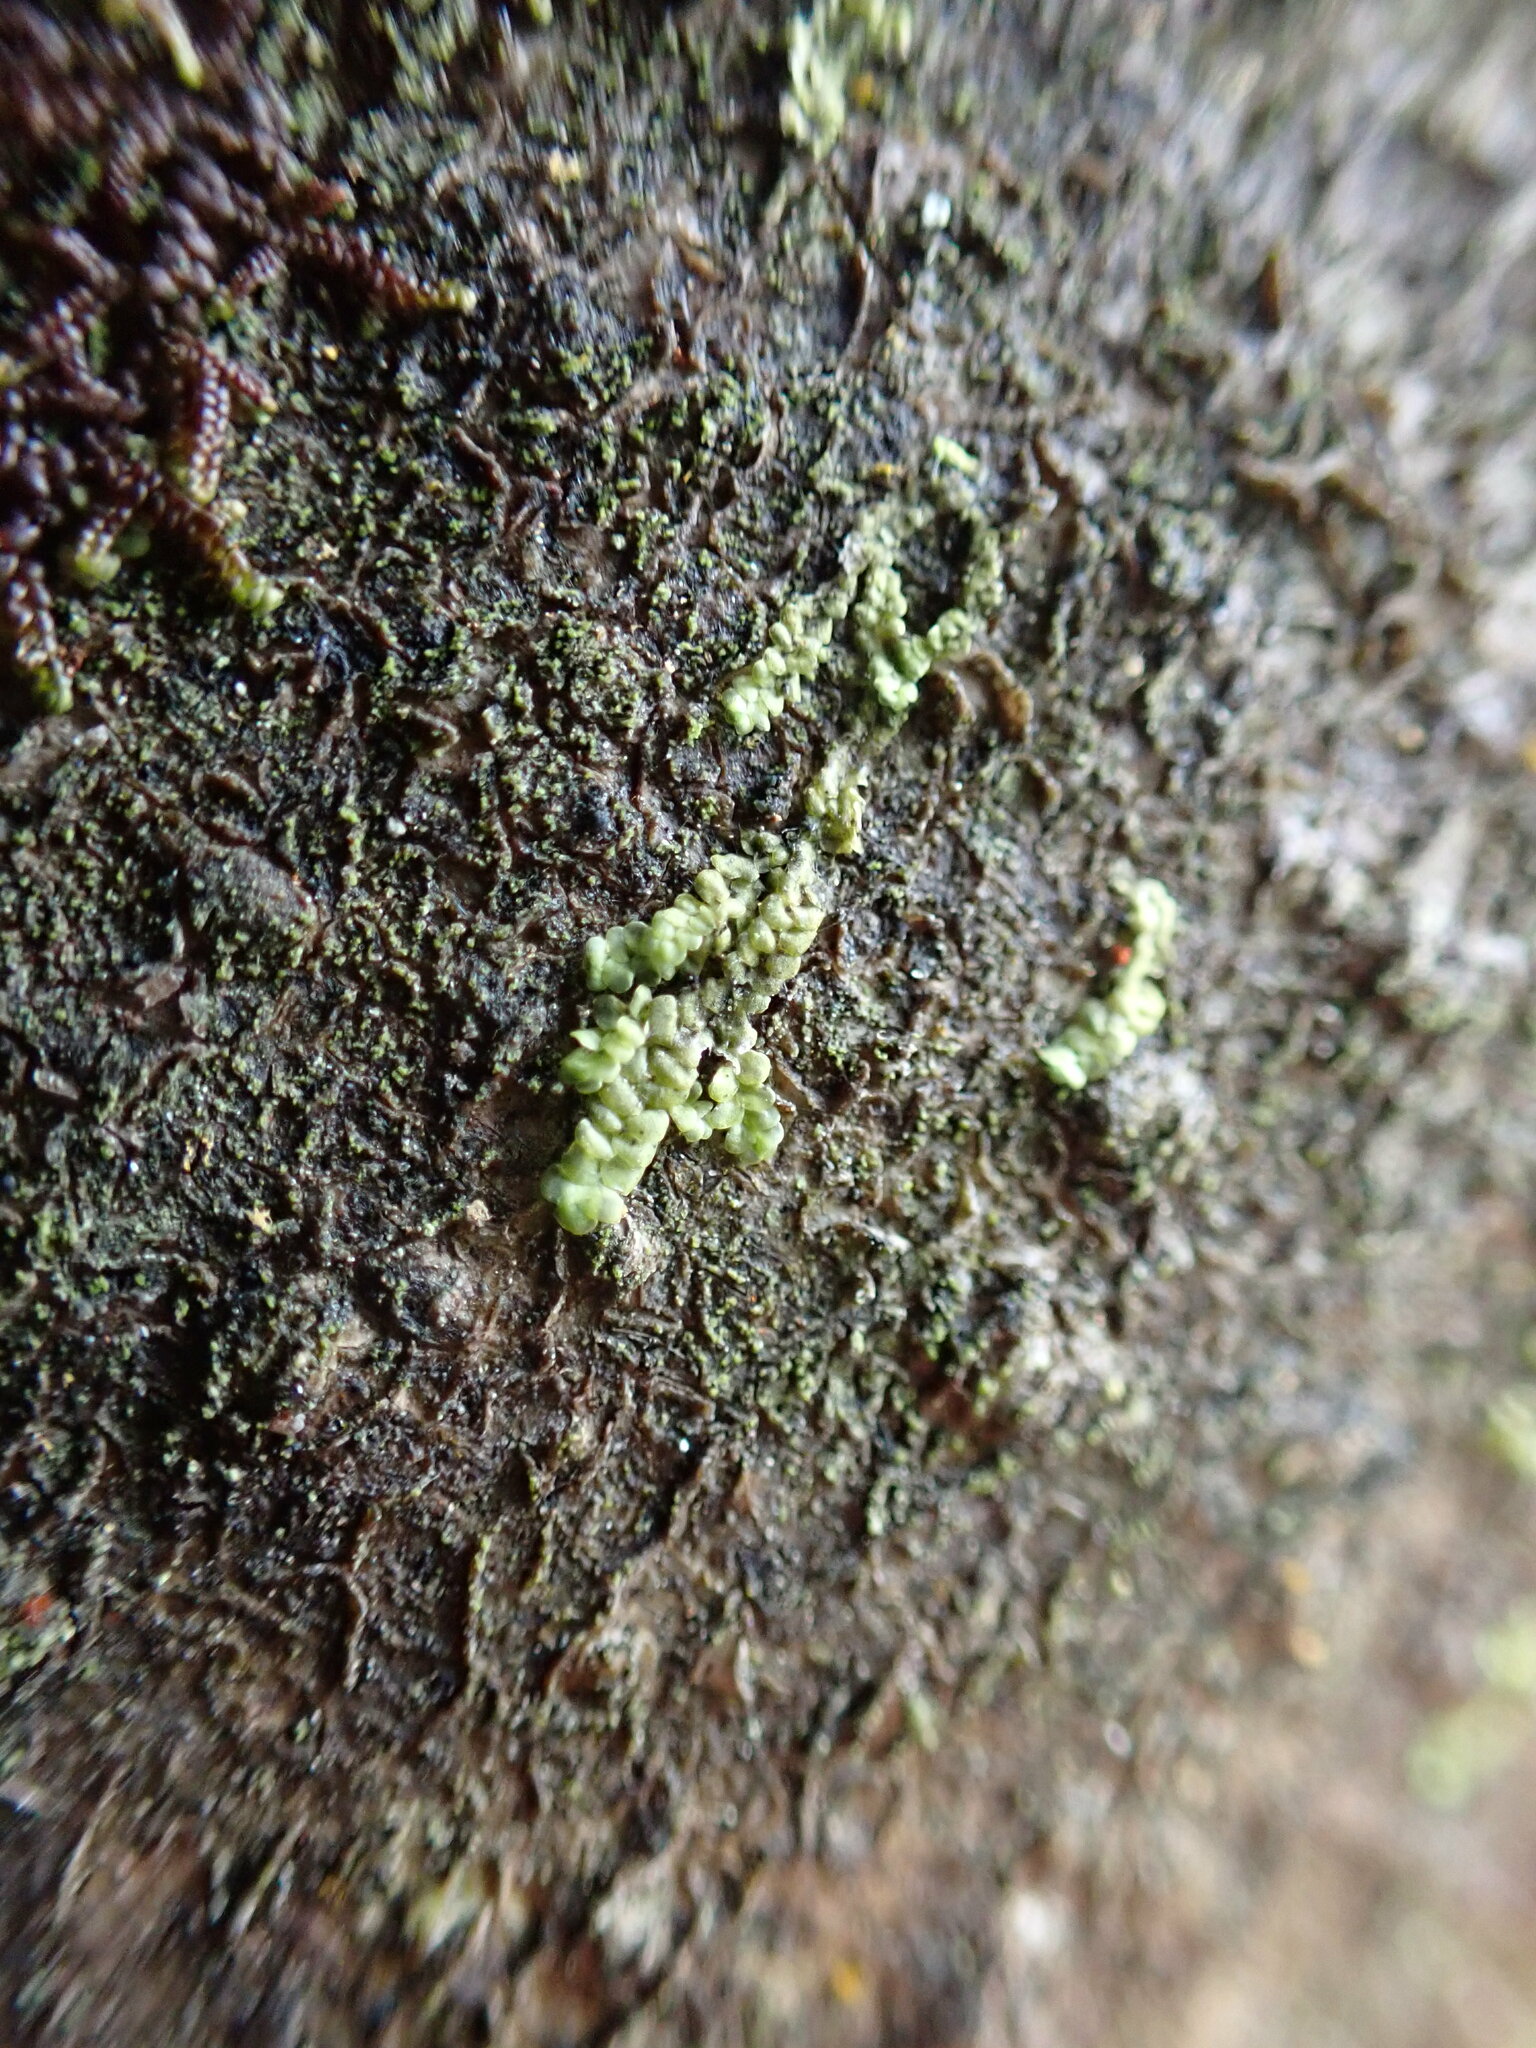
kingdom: Plantae
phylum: Marchantiophyta
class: Jungermanniopsida
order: Porellales
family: Radulaceae
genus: Radula
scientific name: Radula complanata
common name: Flat-leaved scalewort
